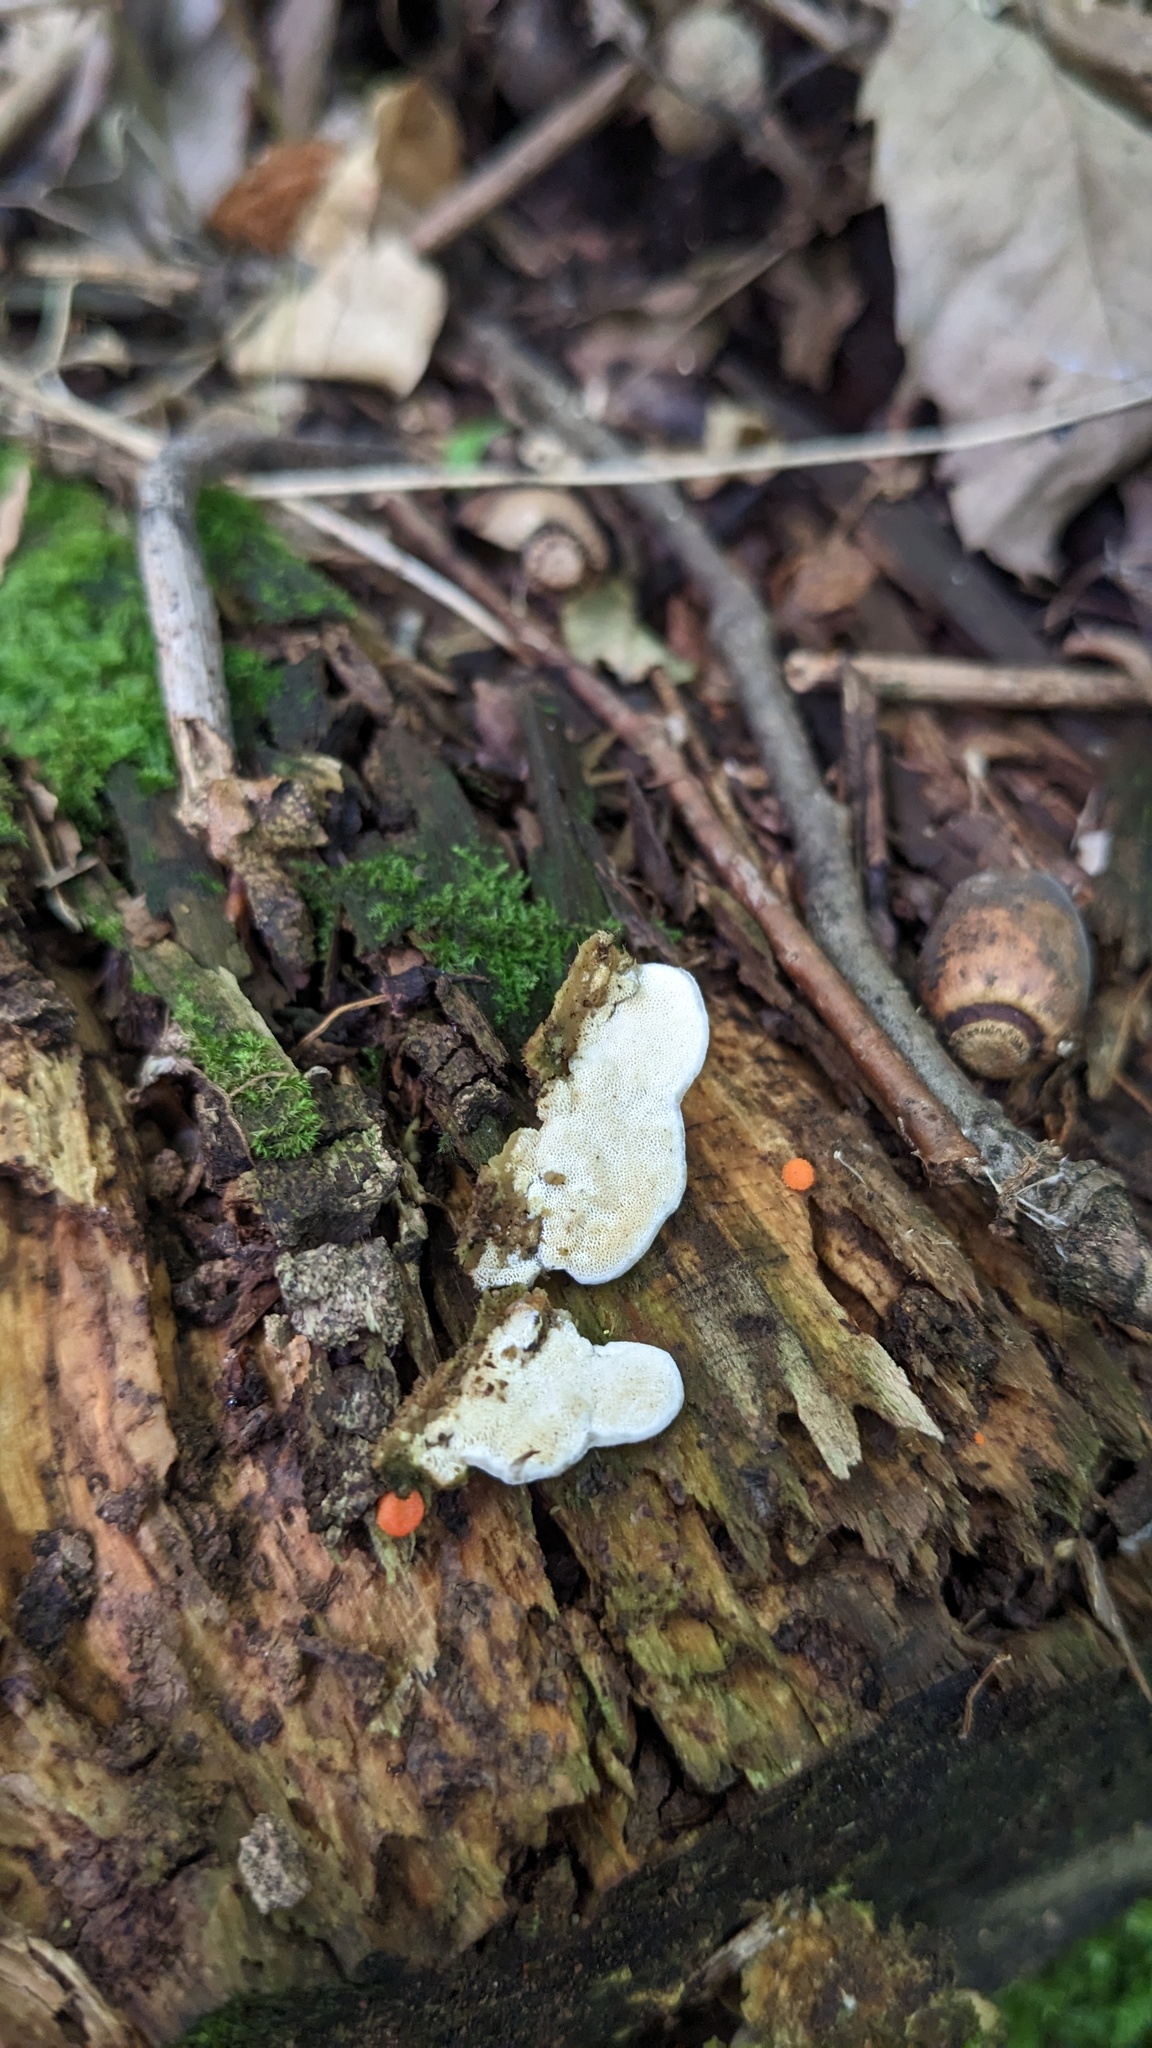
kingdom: Fungi
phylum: Basidiomycota
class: Agaricomycetes
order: Hymenochaetales
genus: Cyanotrama
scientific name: Cyanotrama
